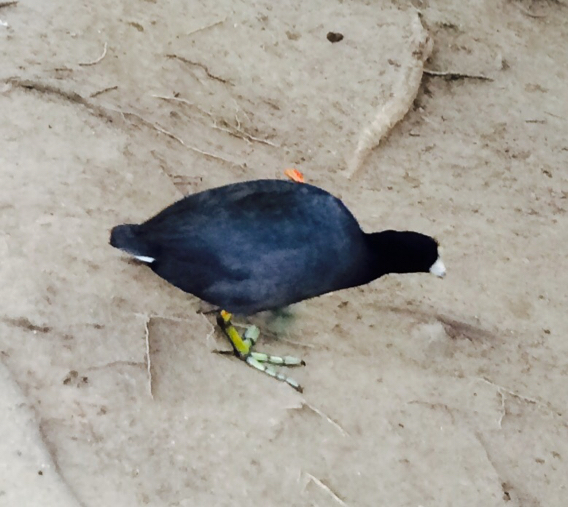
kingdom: Animalia
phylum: Chordata
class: Aves
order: Gruiformes
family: Rallidae
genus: Fulica
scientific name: Fulica americana
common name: American coot
